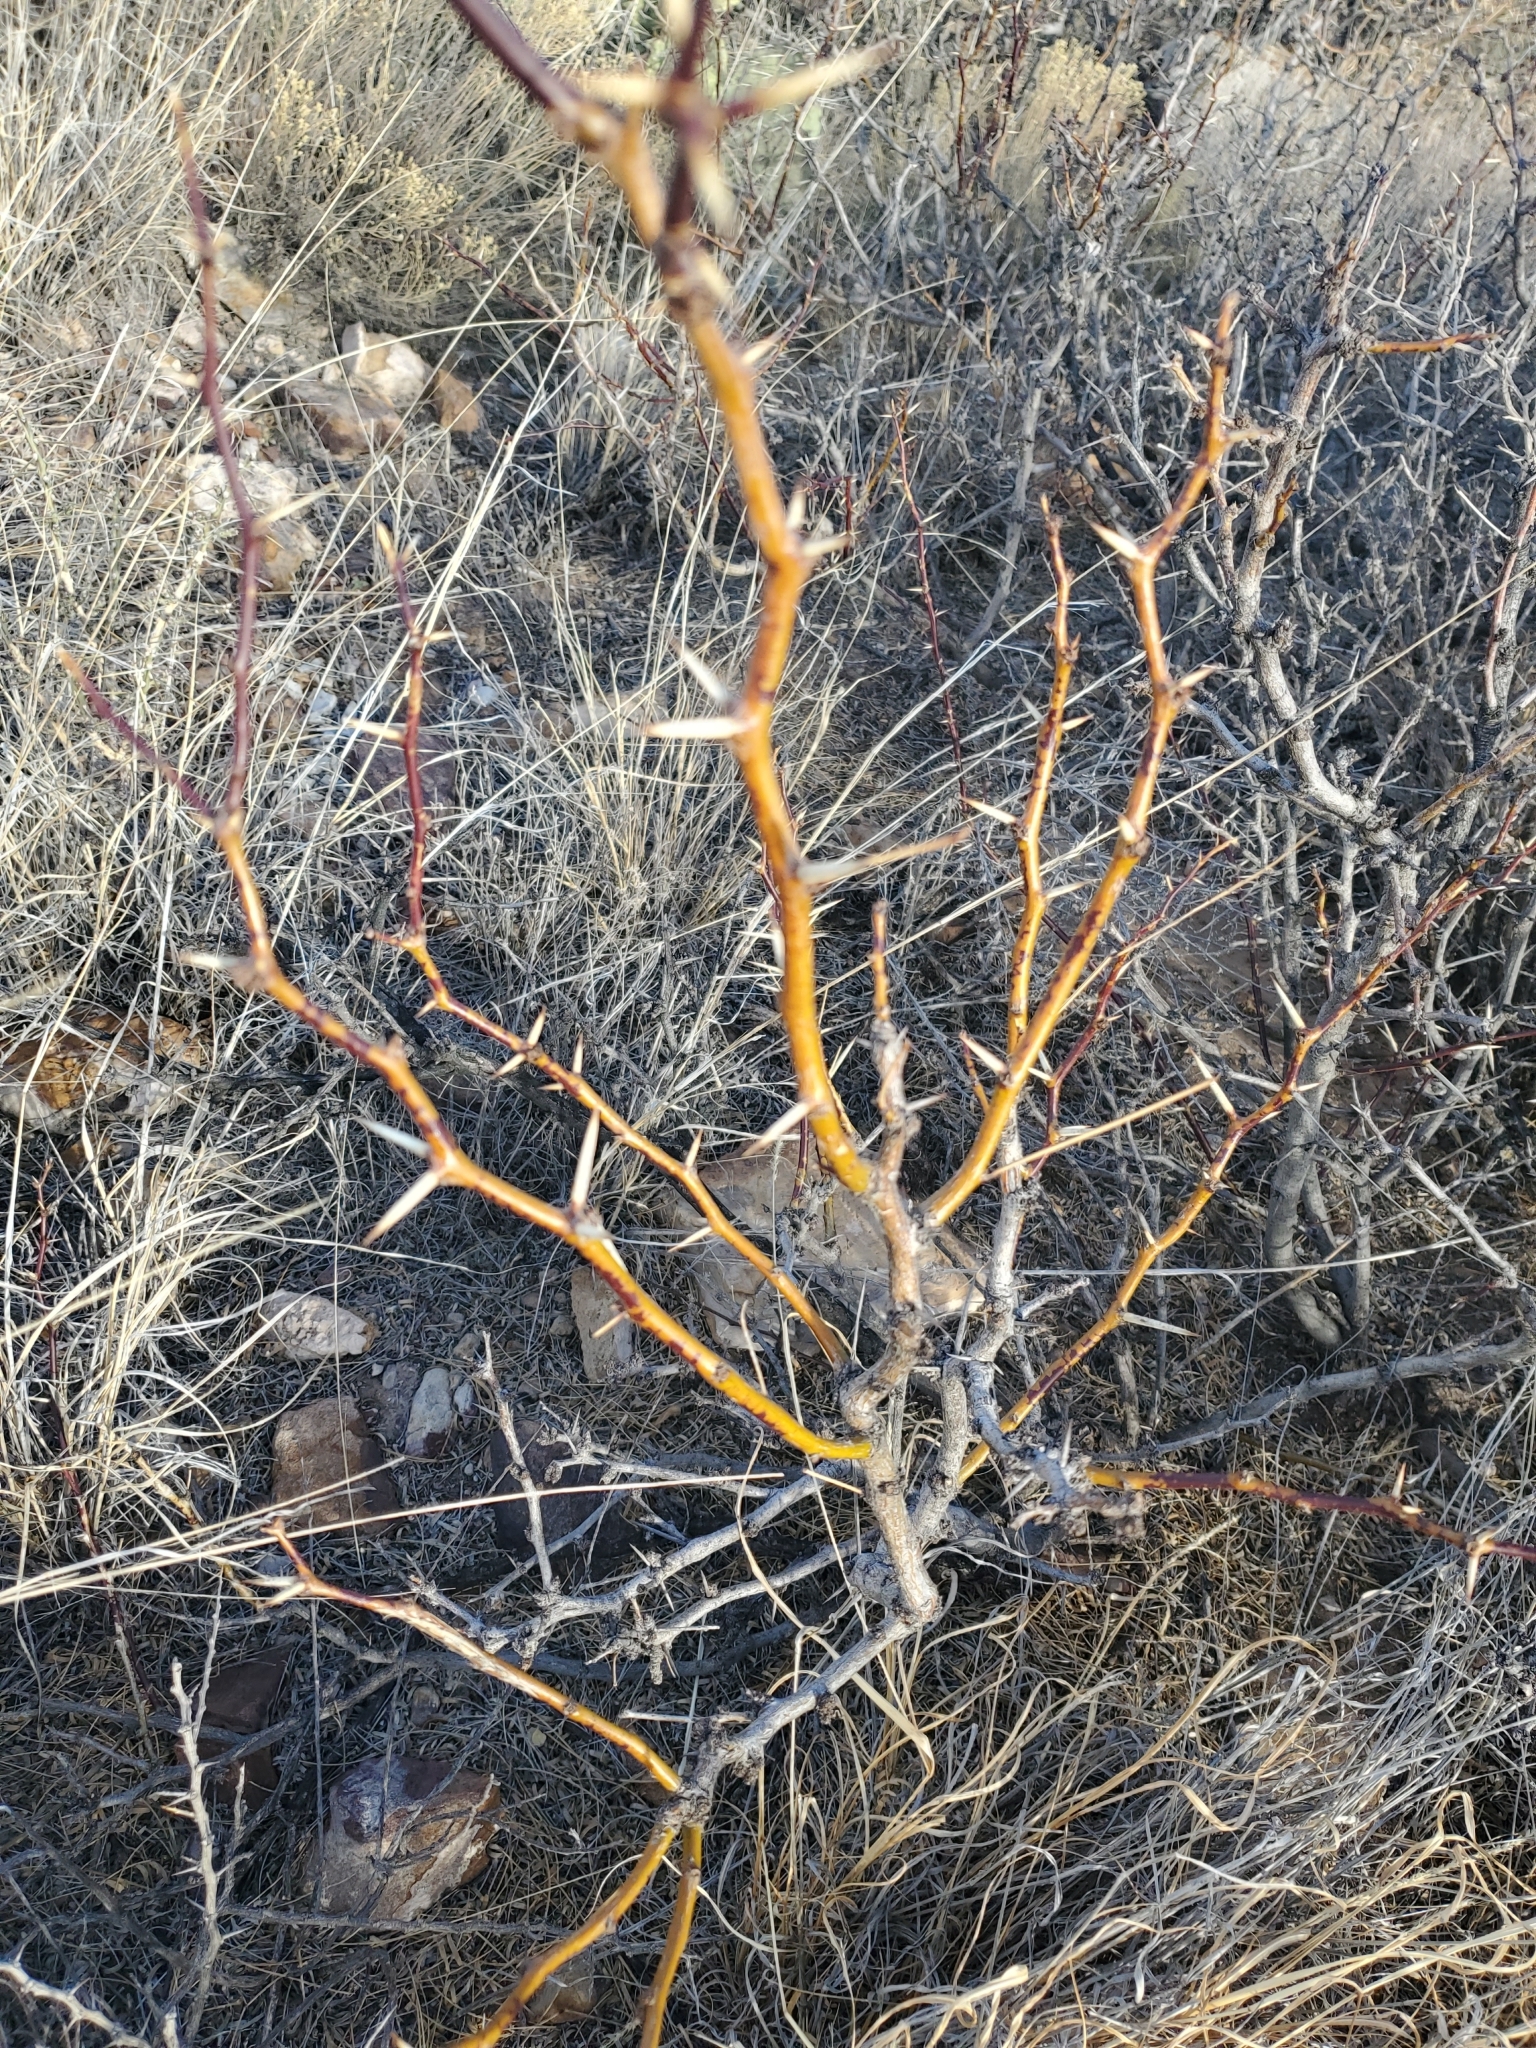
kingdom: Plantae
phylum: Tracheophyta
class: Magnoliopsida
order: Fabales
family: Fabaceae
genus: Prosopis
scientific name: Prosopis glandulosa
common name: Honey mesquite
